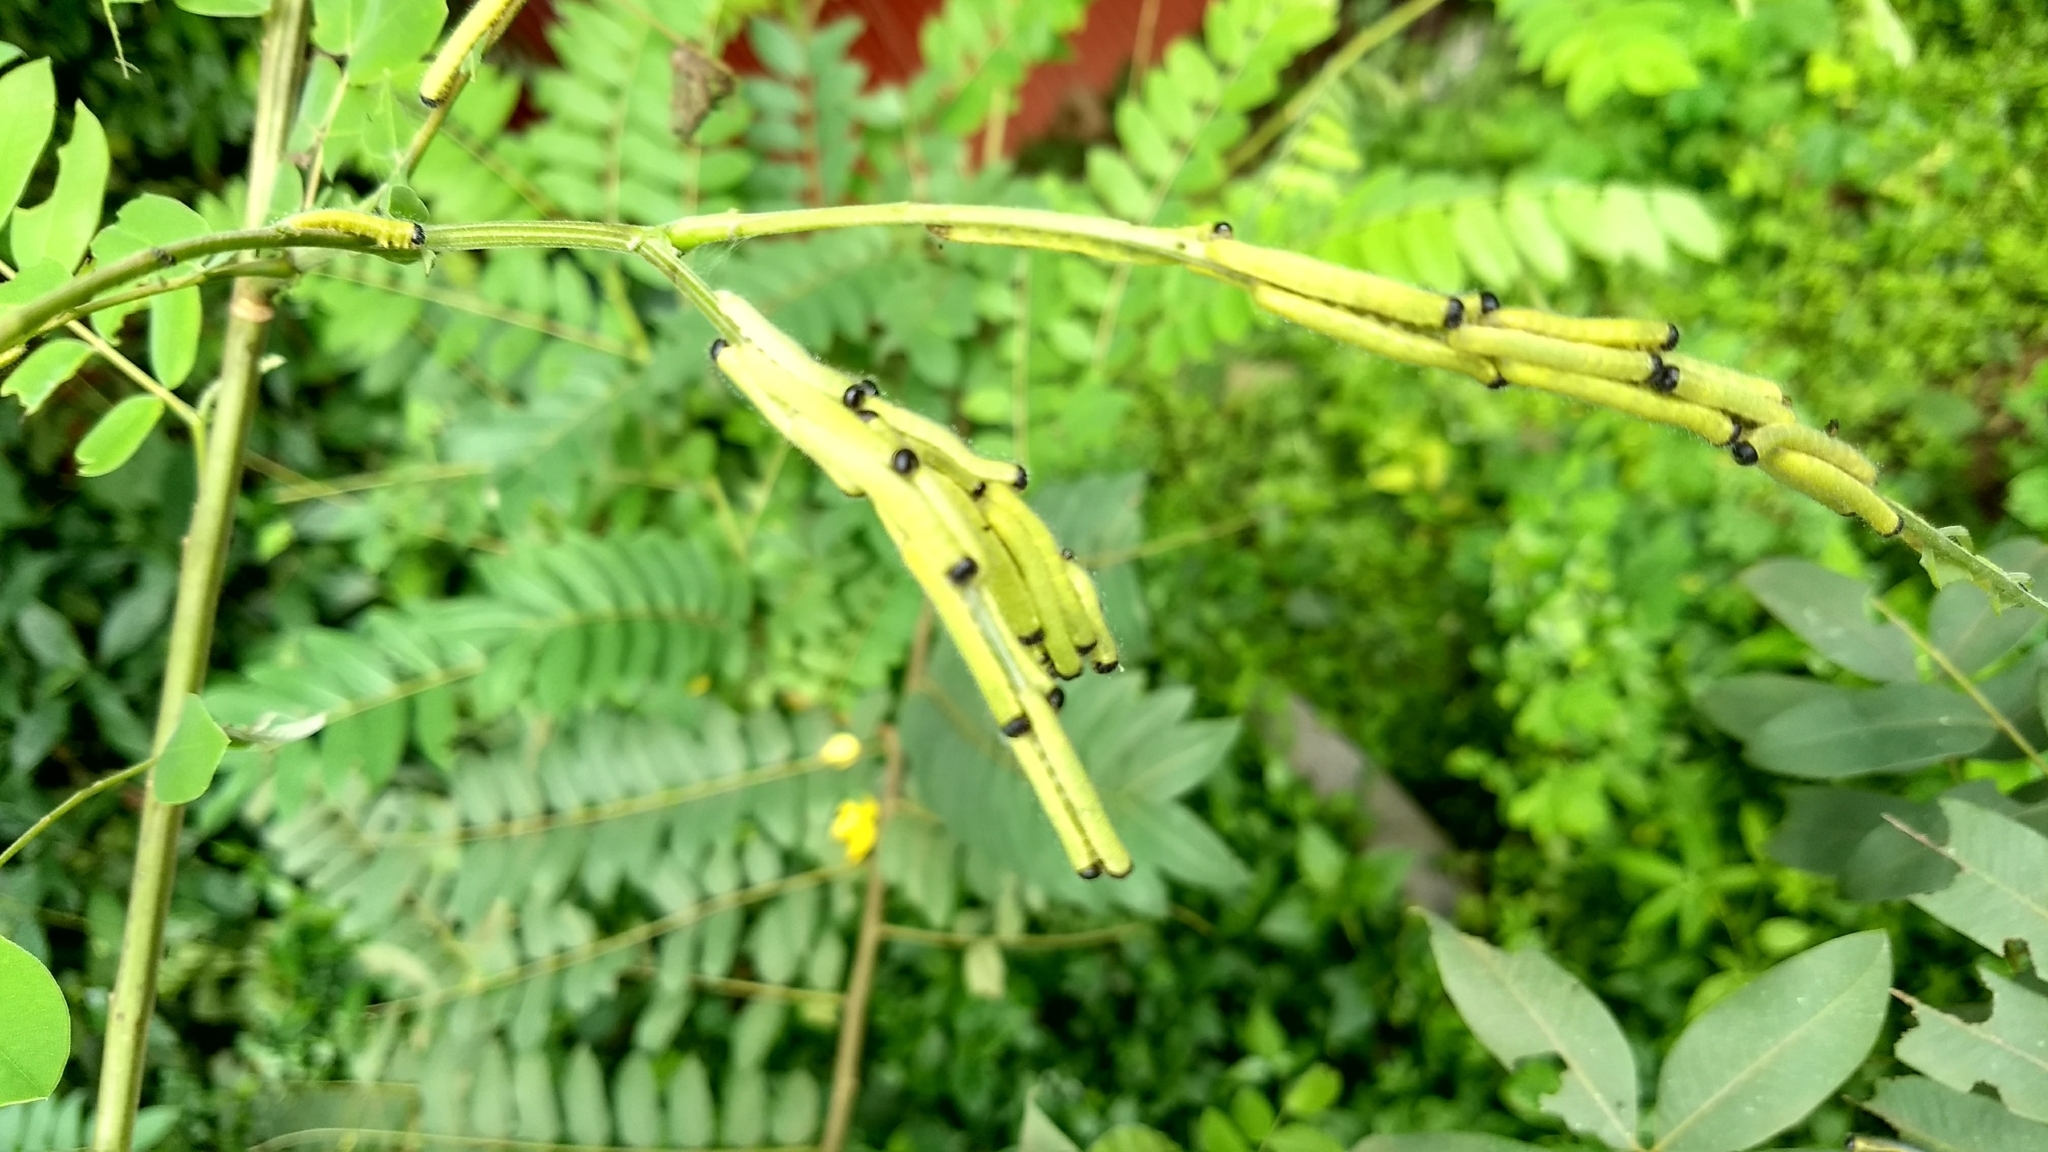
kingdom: Animalia
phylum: Arthropoda
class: Insecta
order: Lepidoptera
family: Pieridae
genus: Eurema
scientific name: Eurema blanda
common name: Three-spot grass yellow
